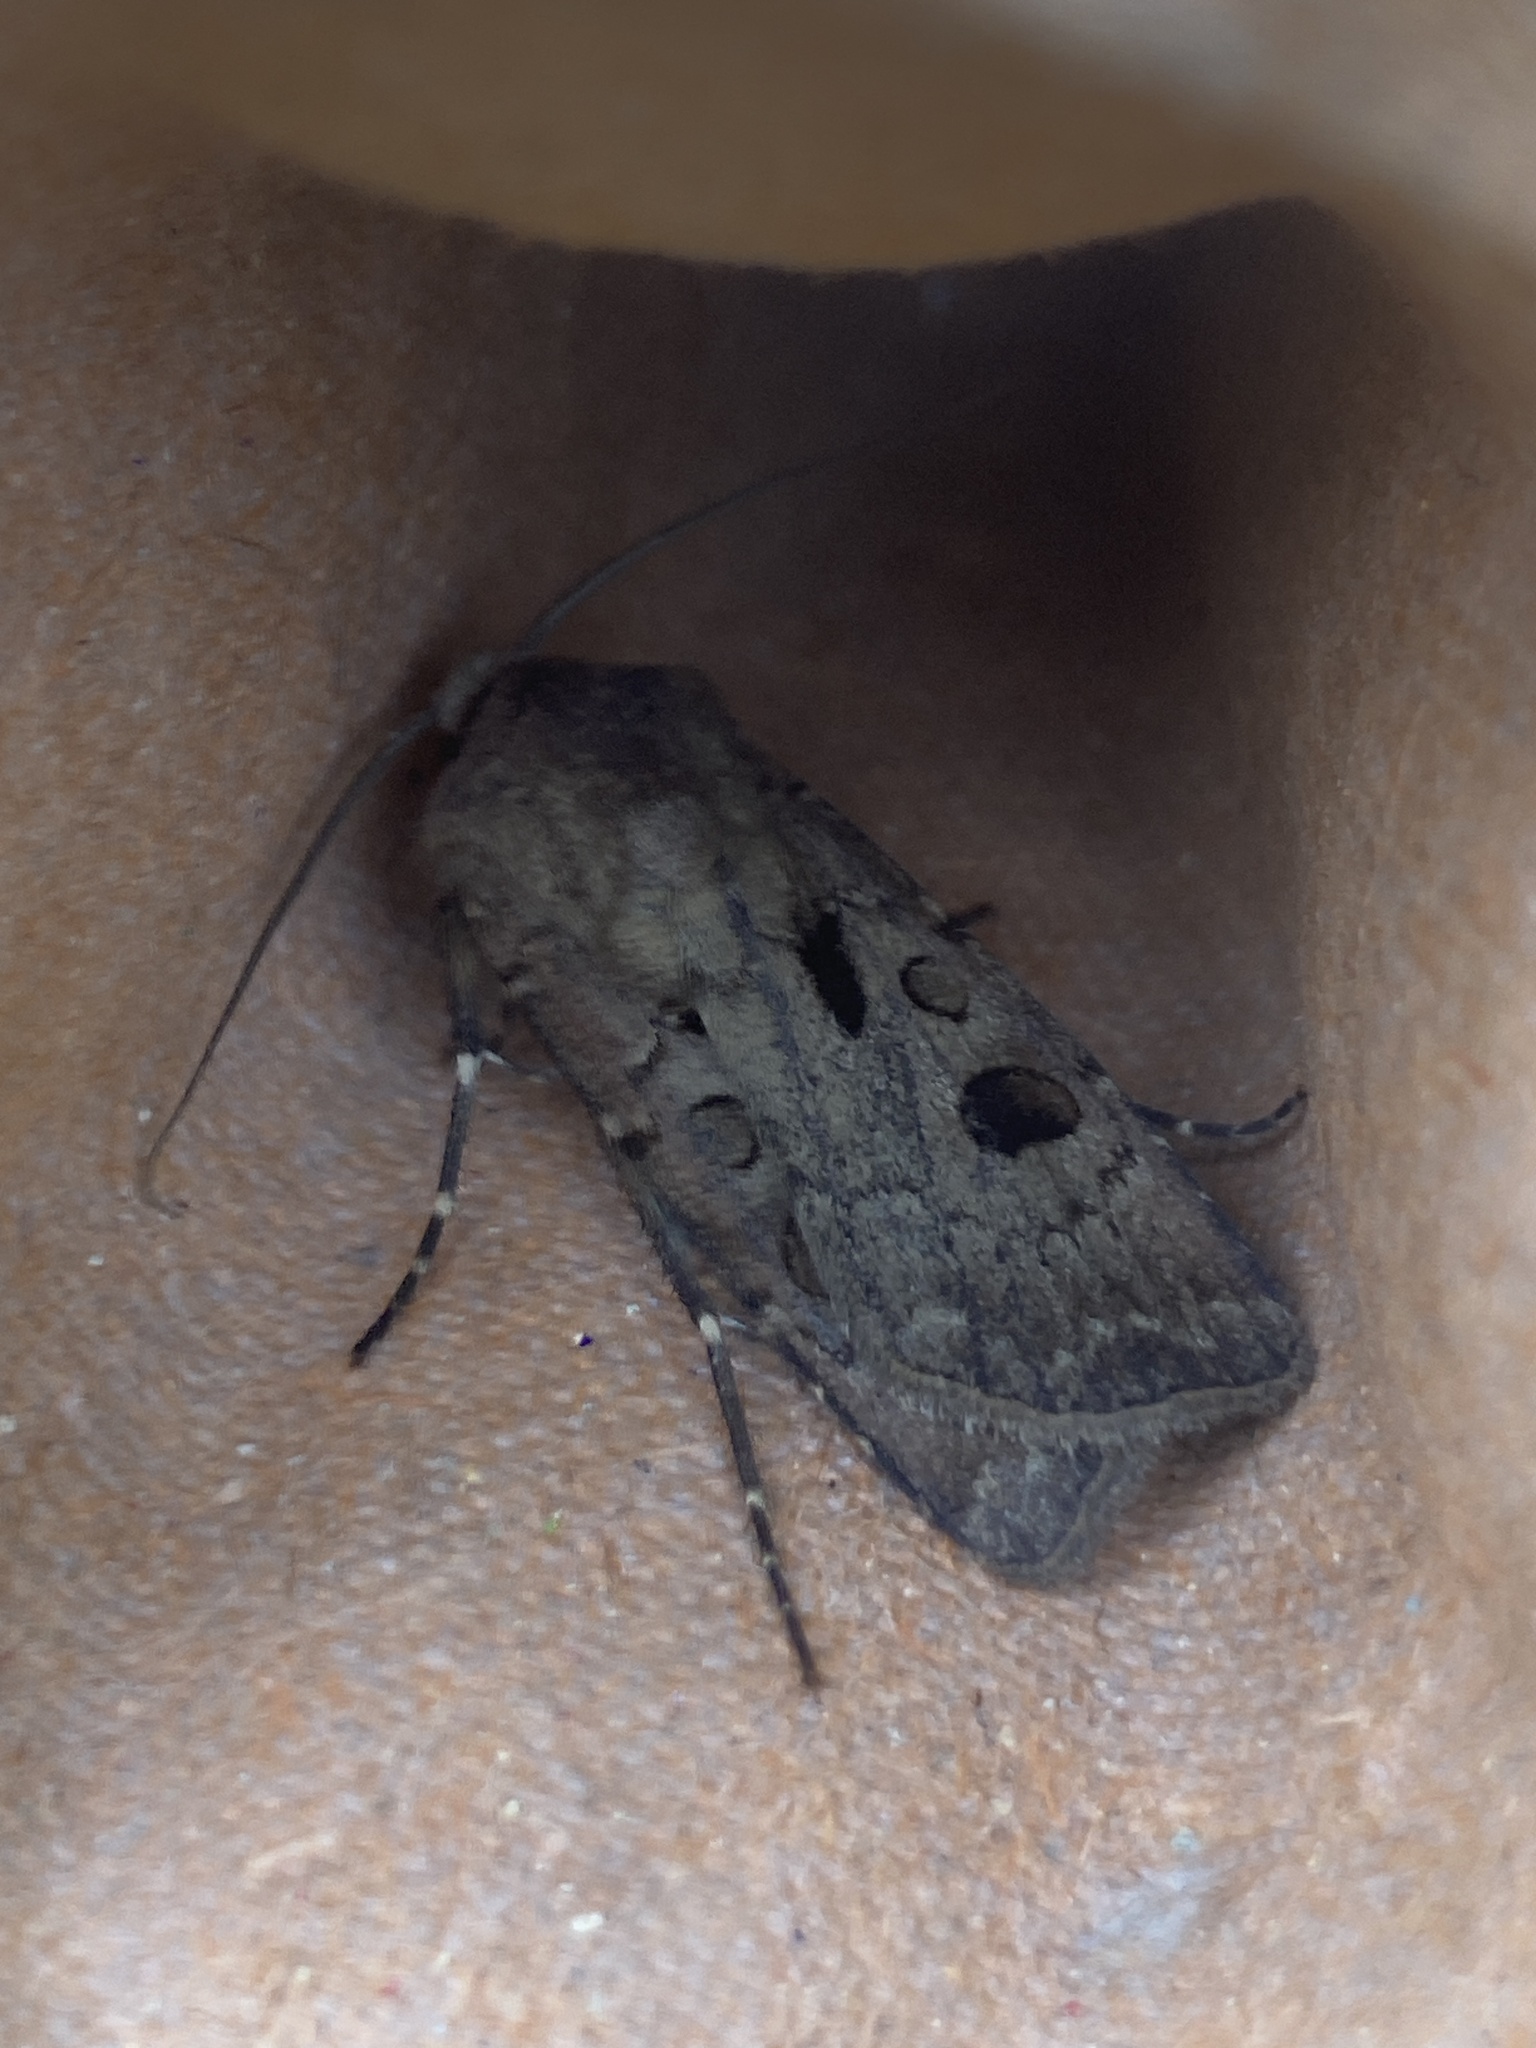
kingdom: Animalia
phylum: Arthropoda
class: Insecta
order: Lepidoptera
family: Noctuidae
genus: Agrotis
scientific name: Agrotis exclamationis
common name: Heart and dart
